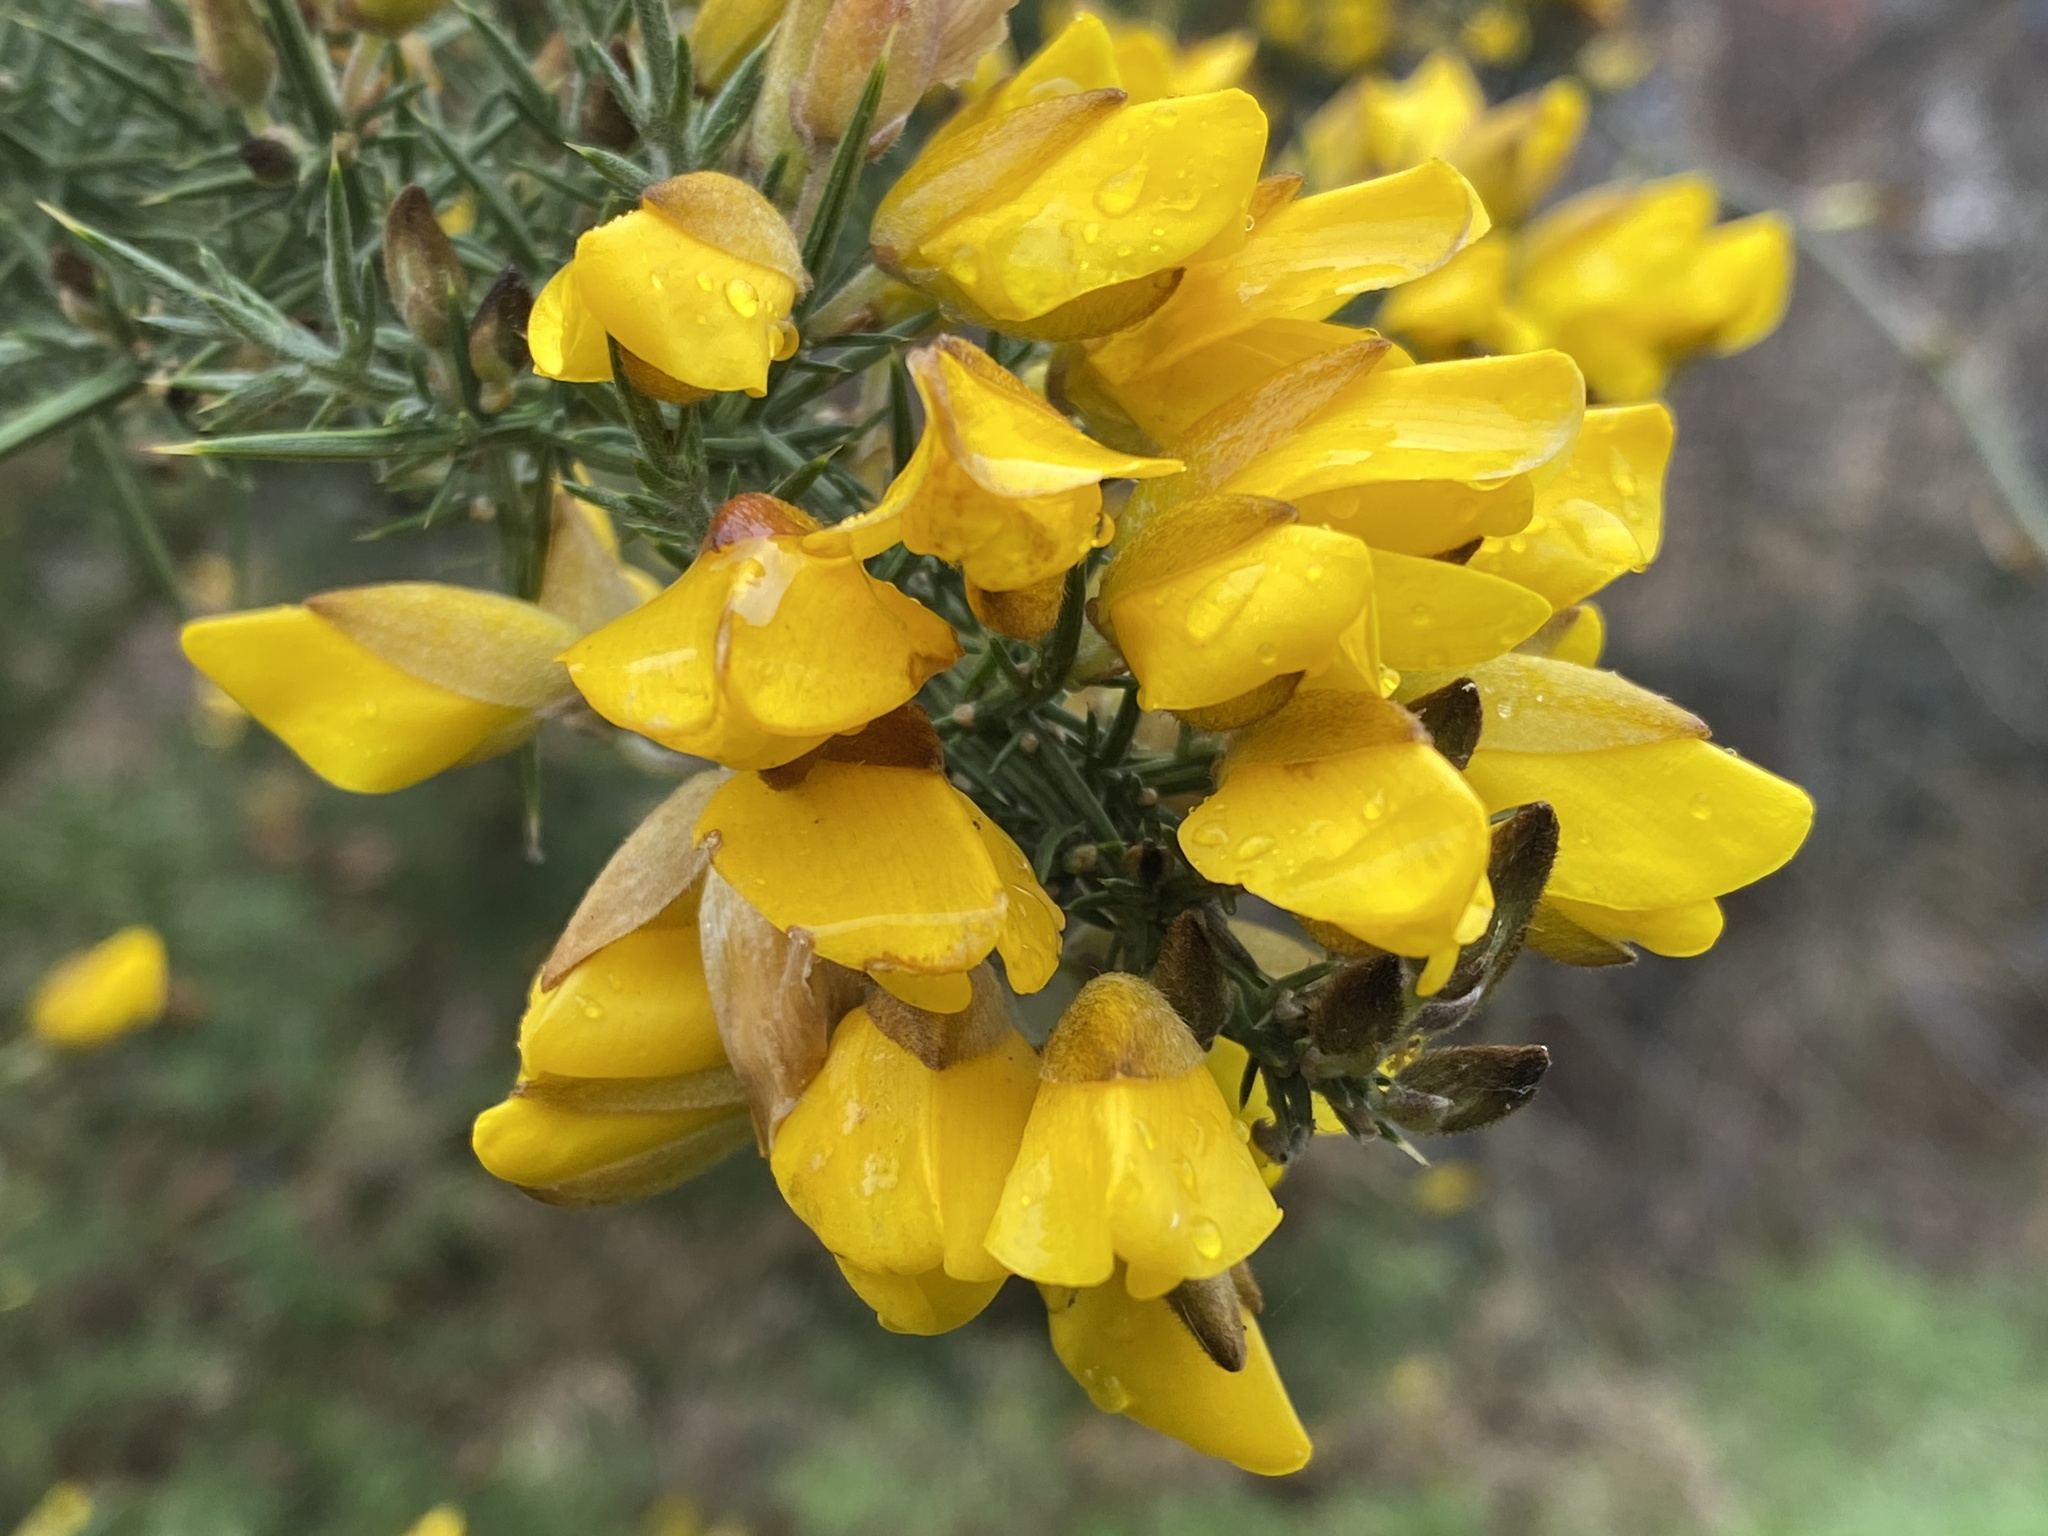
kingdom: Plantae
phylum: Tracheophyta
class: Magnoliopsida
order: Fabales
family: Fabaceae
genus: Ulex
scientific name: Ulex europaeus
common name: Common gorse
